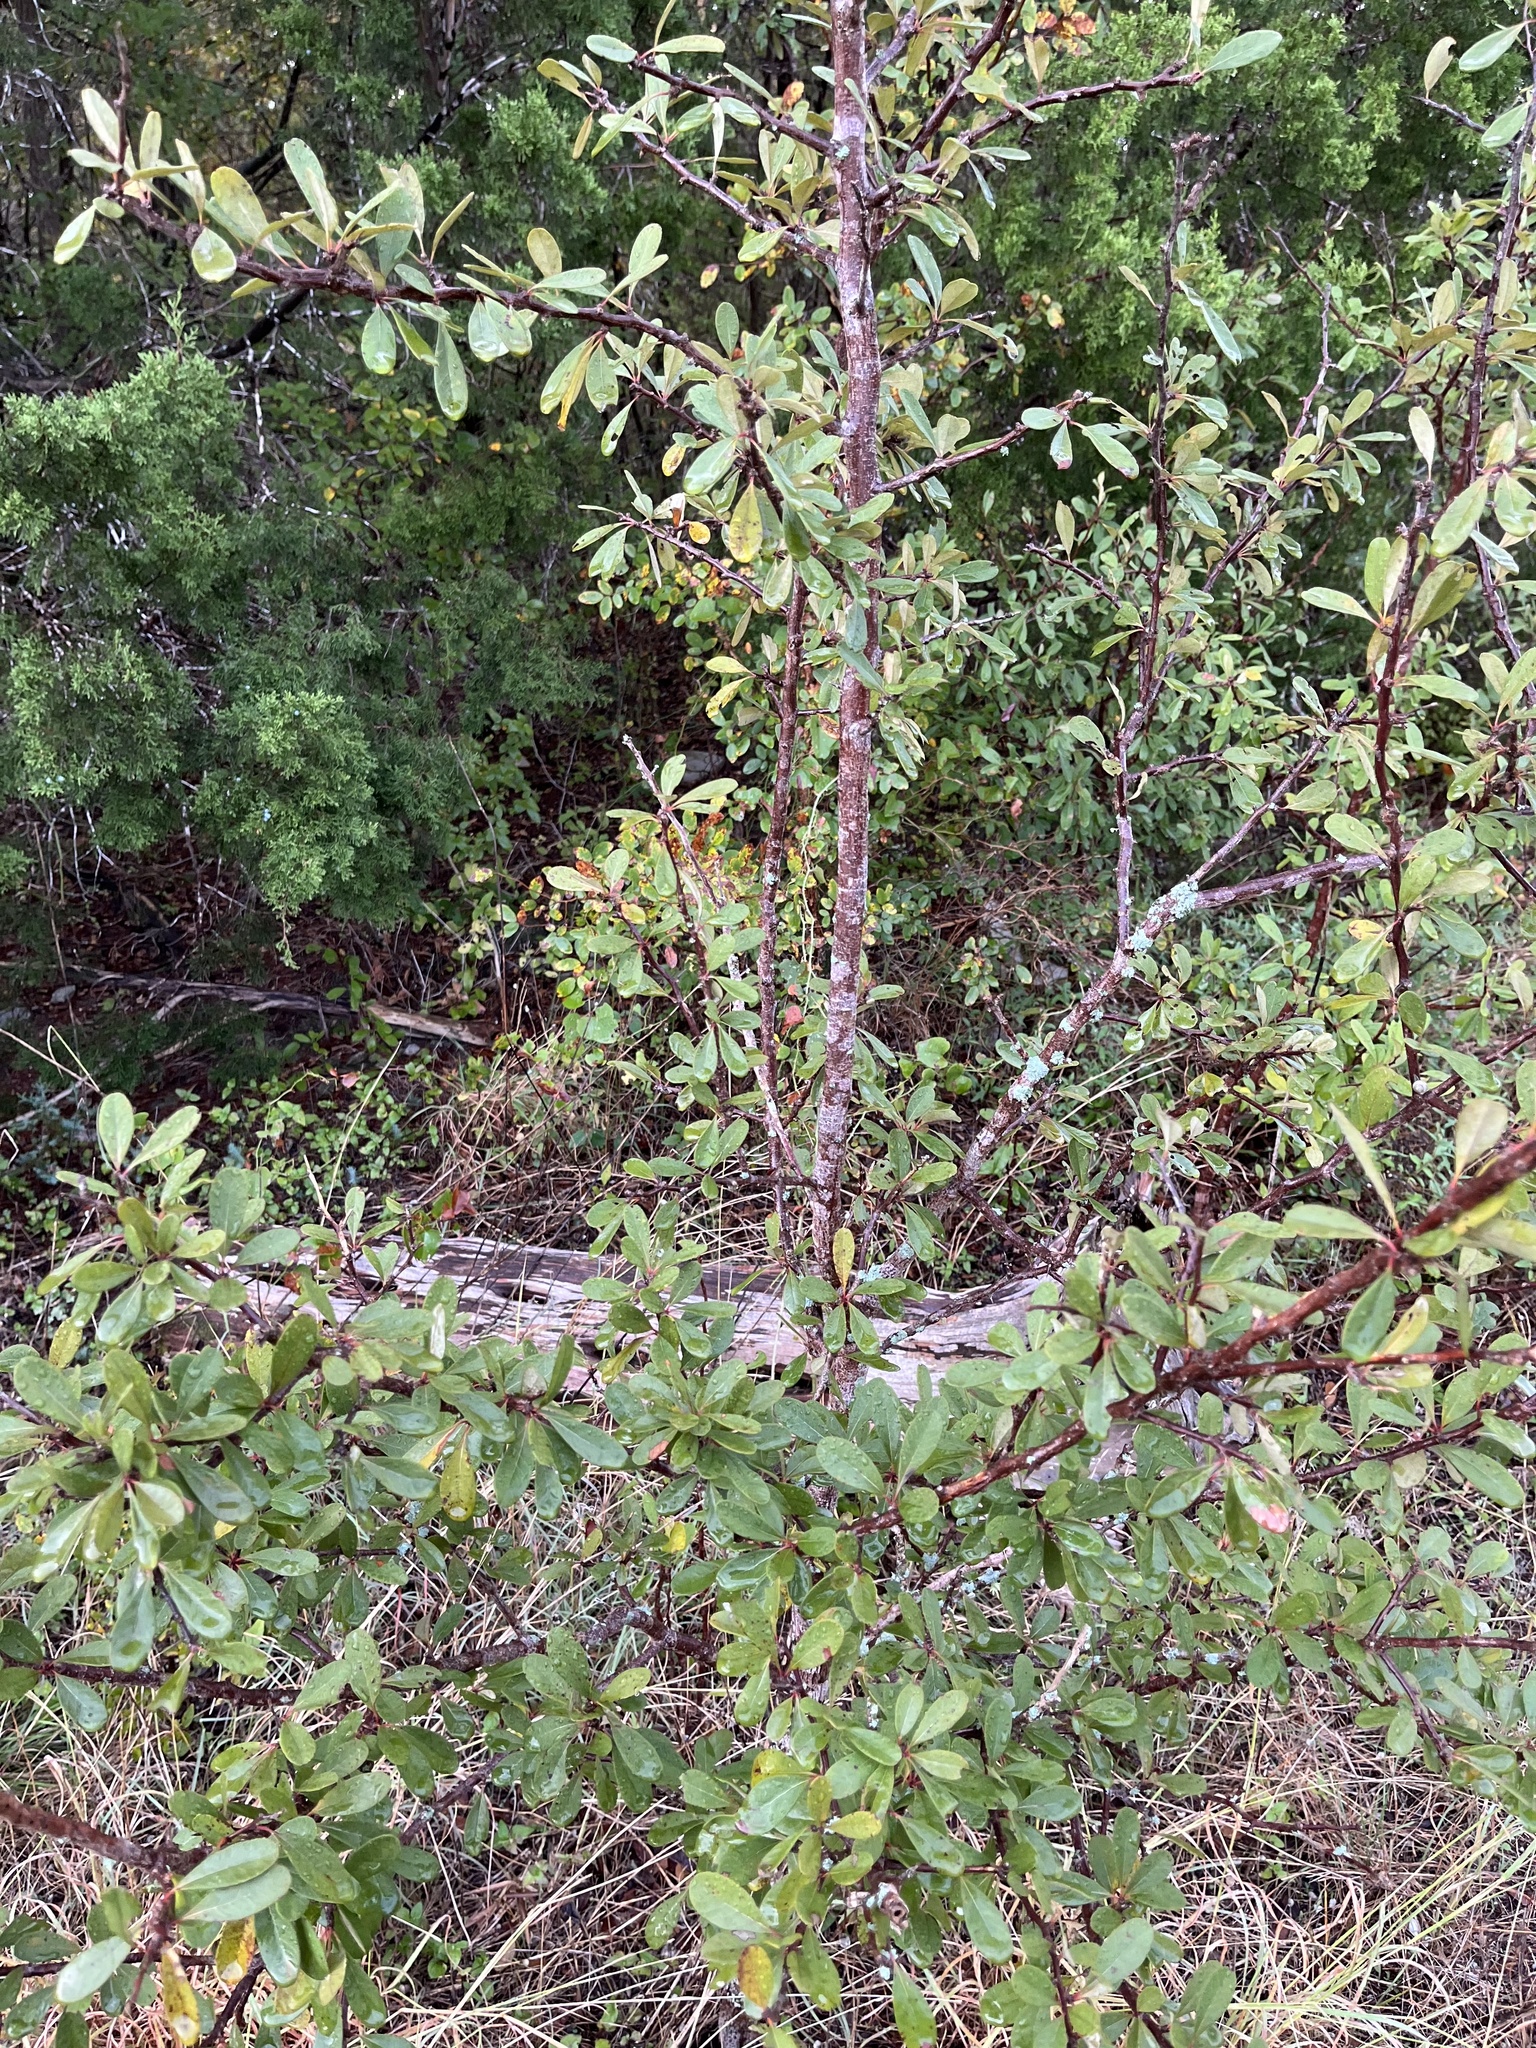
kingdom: Plantae
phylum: Tracheophyta
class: Magnoliopsida
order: Ericales
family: Sapotaceae
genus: Sideroxylon
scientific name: Sideroxylon lanuginosum
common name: Chittamwood
